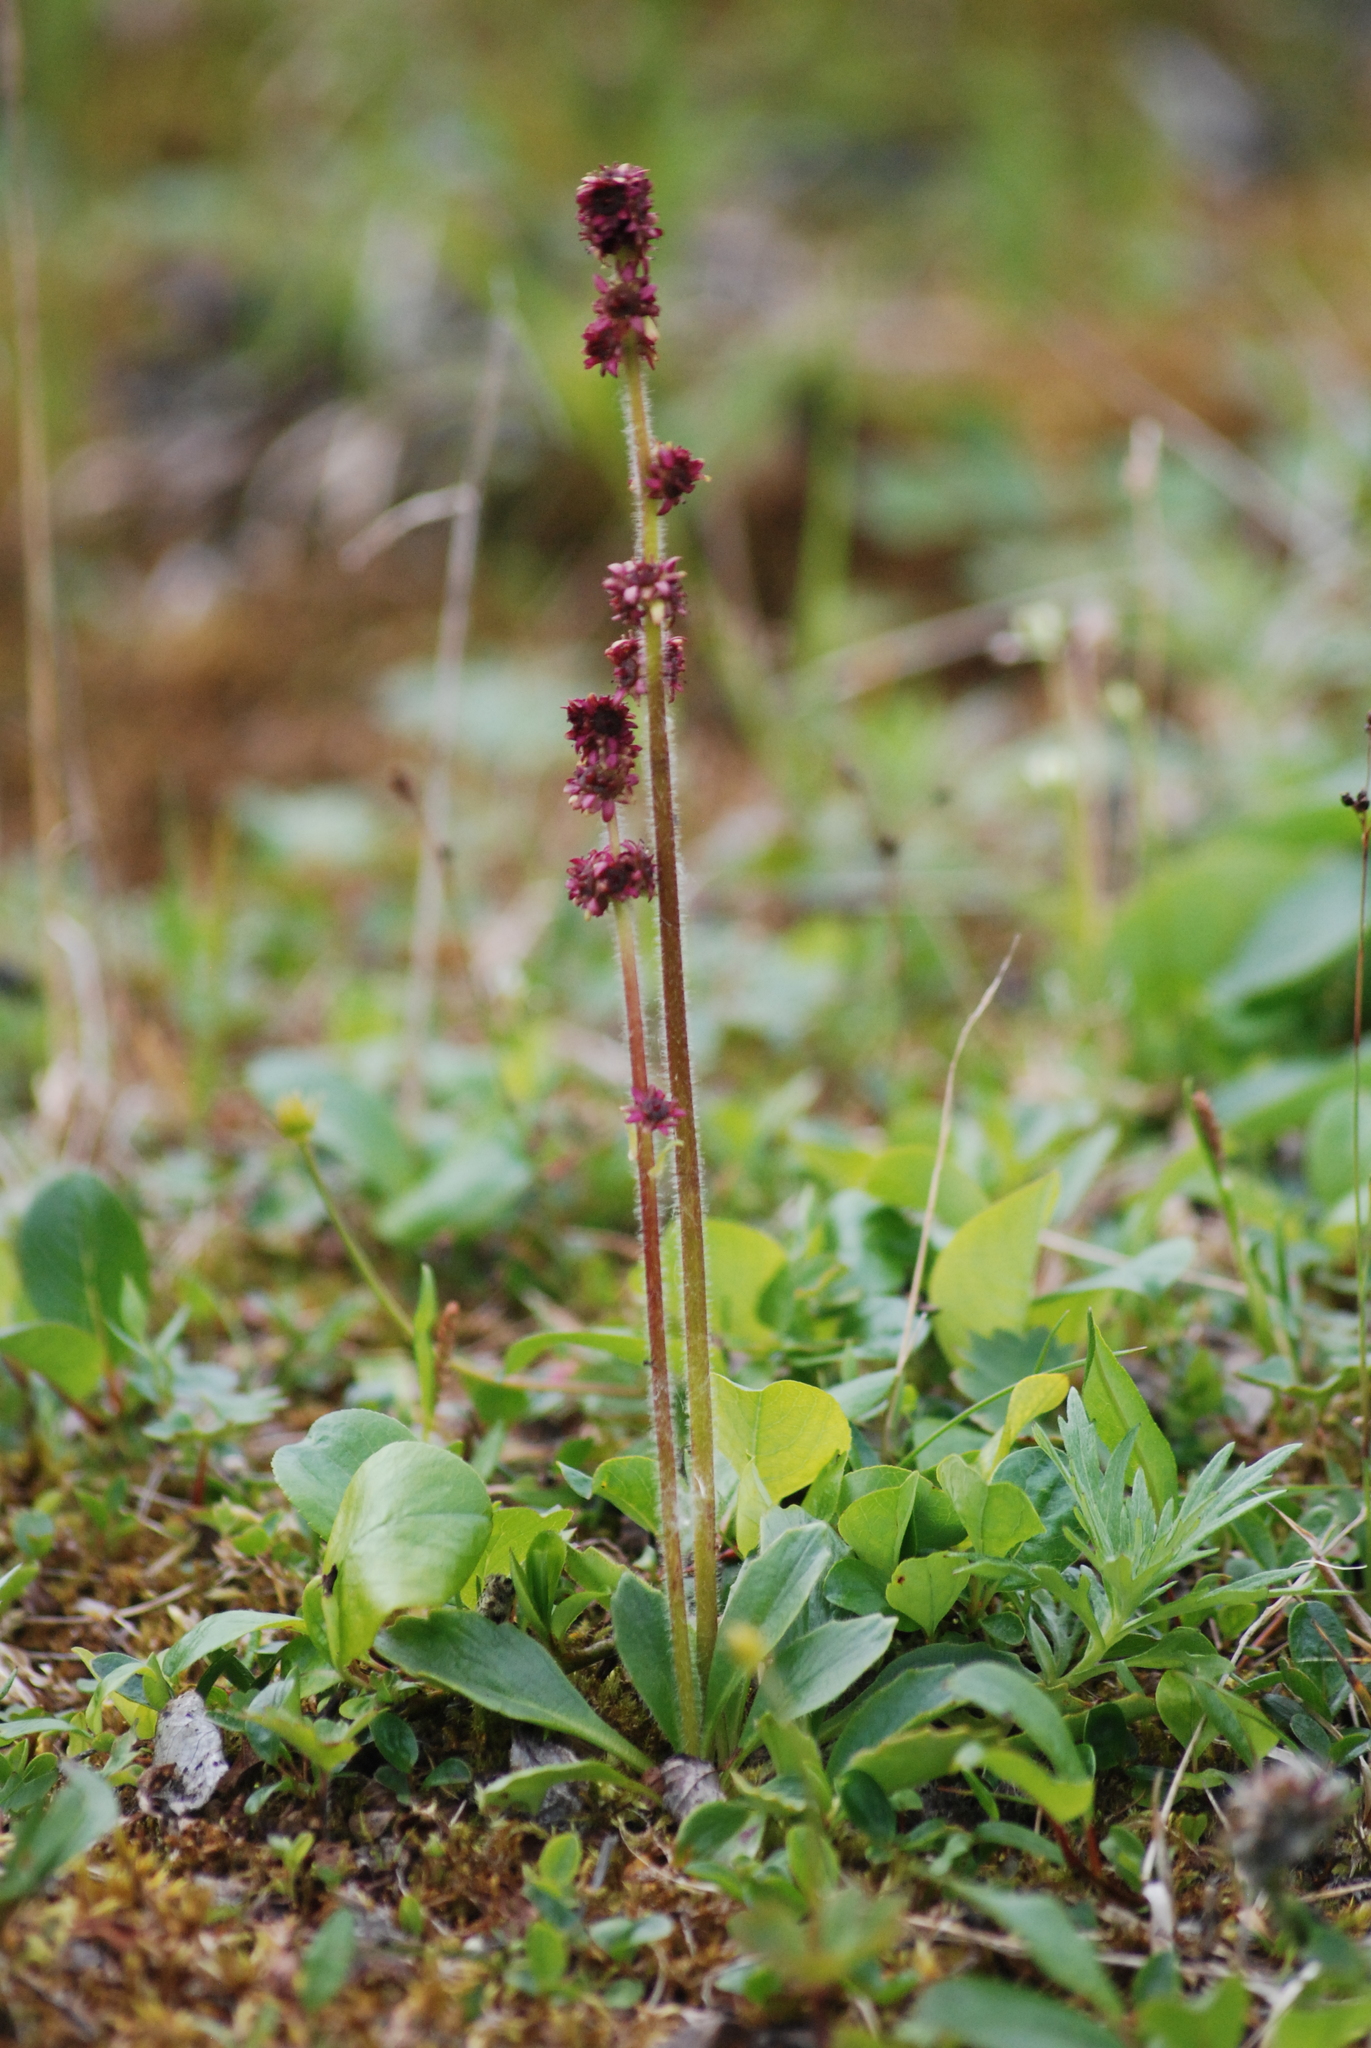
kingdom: Plantae
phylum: Tracheophyta
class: Magnoliopsida
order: Saxifragales
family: Saxifragaceae
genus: Micranthes
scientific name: Micranthes hieraciifolia
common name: Hawkweed-leaved saxifrage
